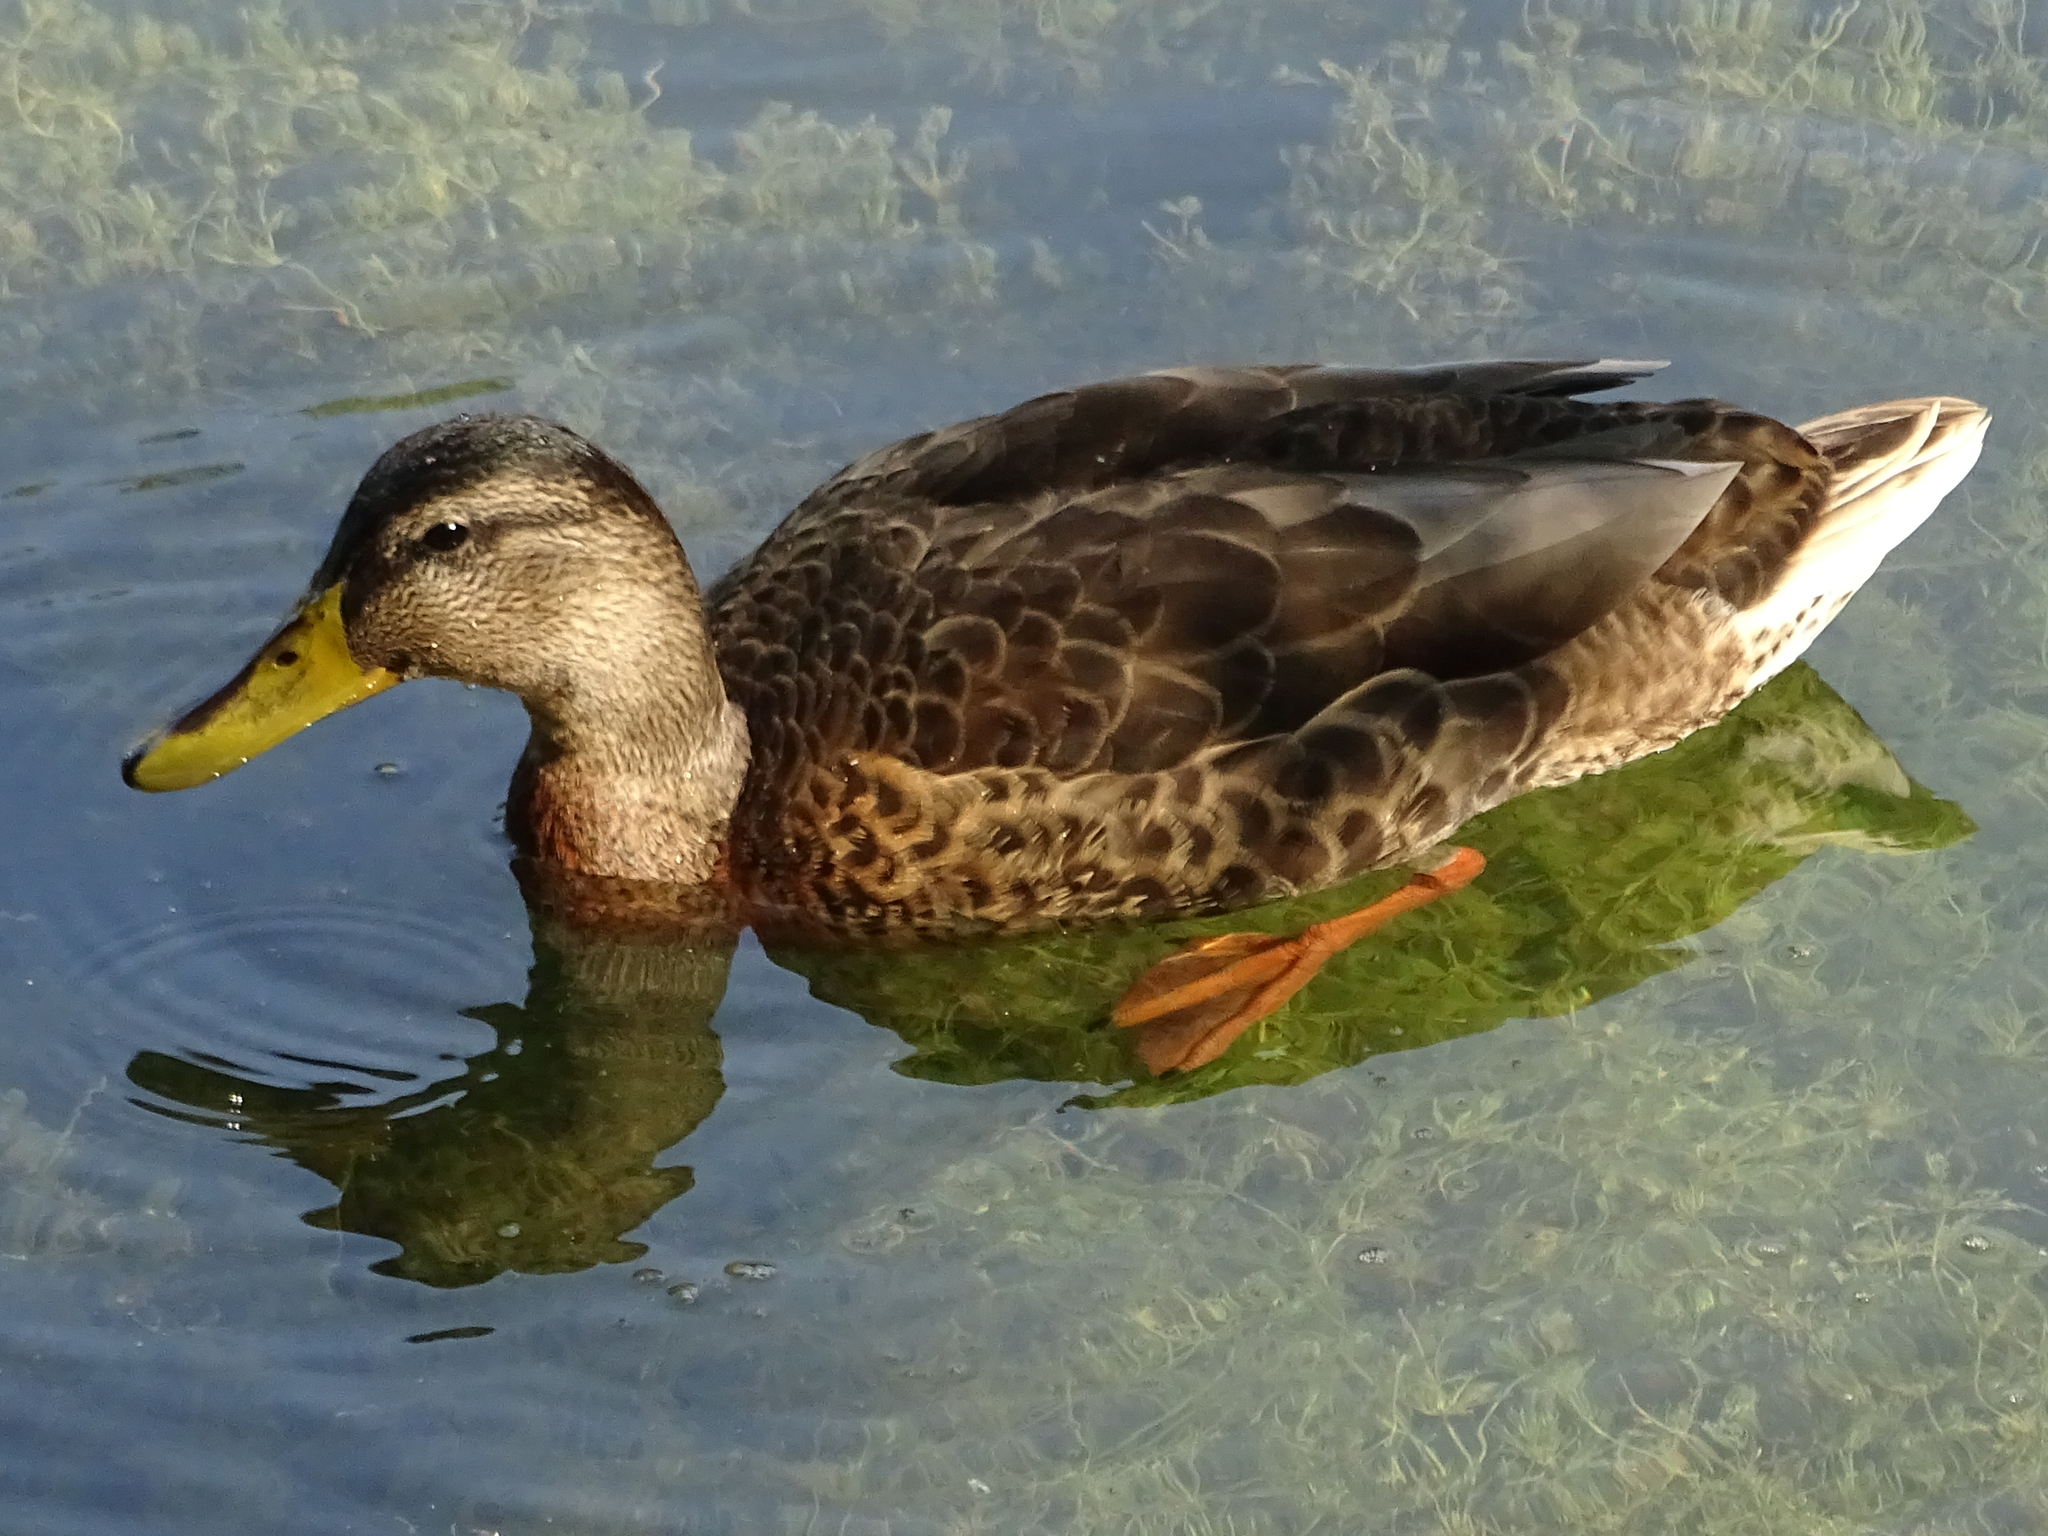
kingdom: Animalia
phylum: Chordata
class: Aves
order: Anseriformes
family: Anatidae
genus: Anas
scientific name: Anas platyrhynchos
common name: Mallard
